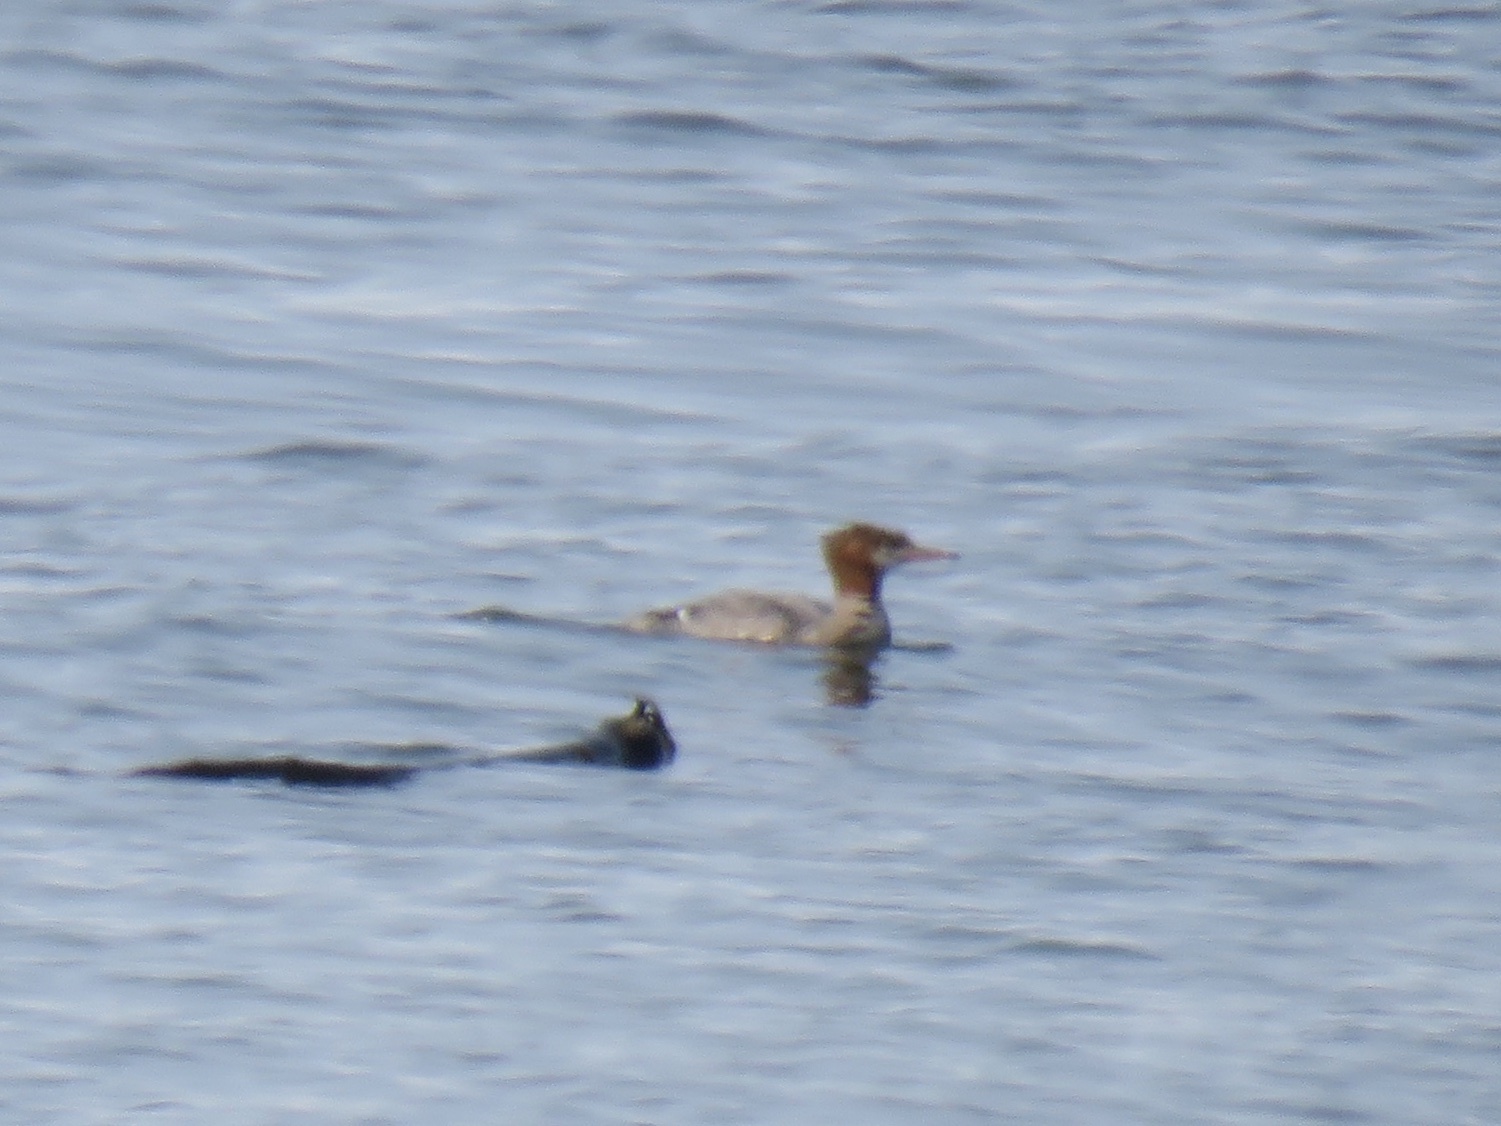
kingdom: Animalia
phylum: Chordata
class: Aves
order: Anseriformes
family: Anatidae
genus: Mergus
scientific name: Mergus merganser
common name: Common merganser
